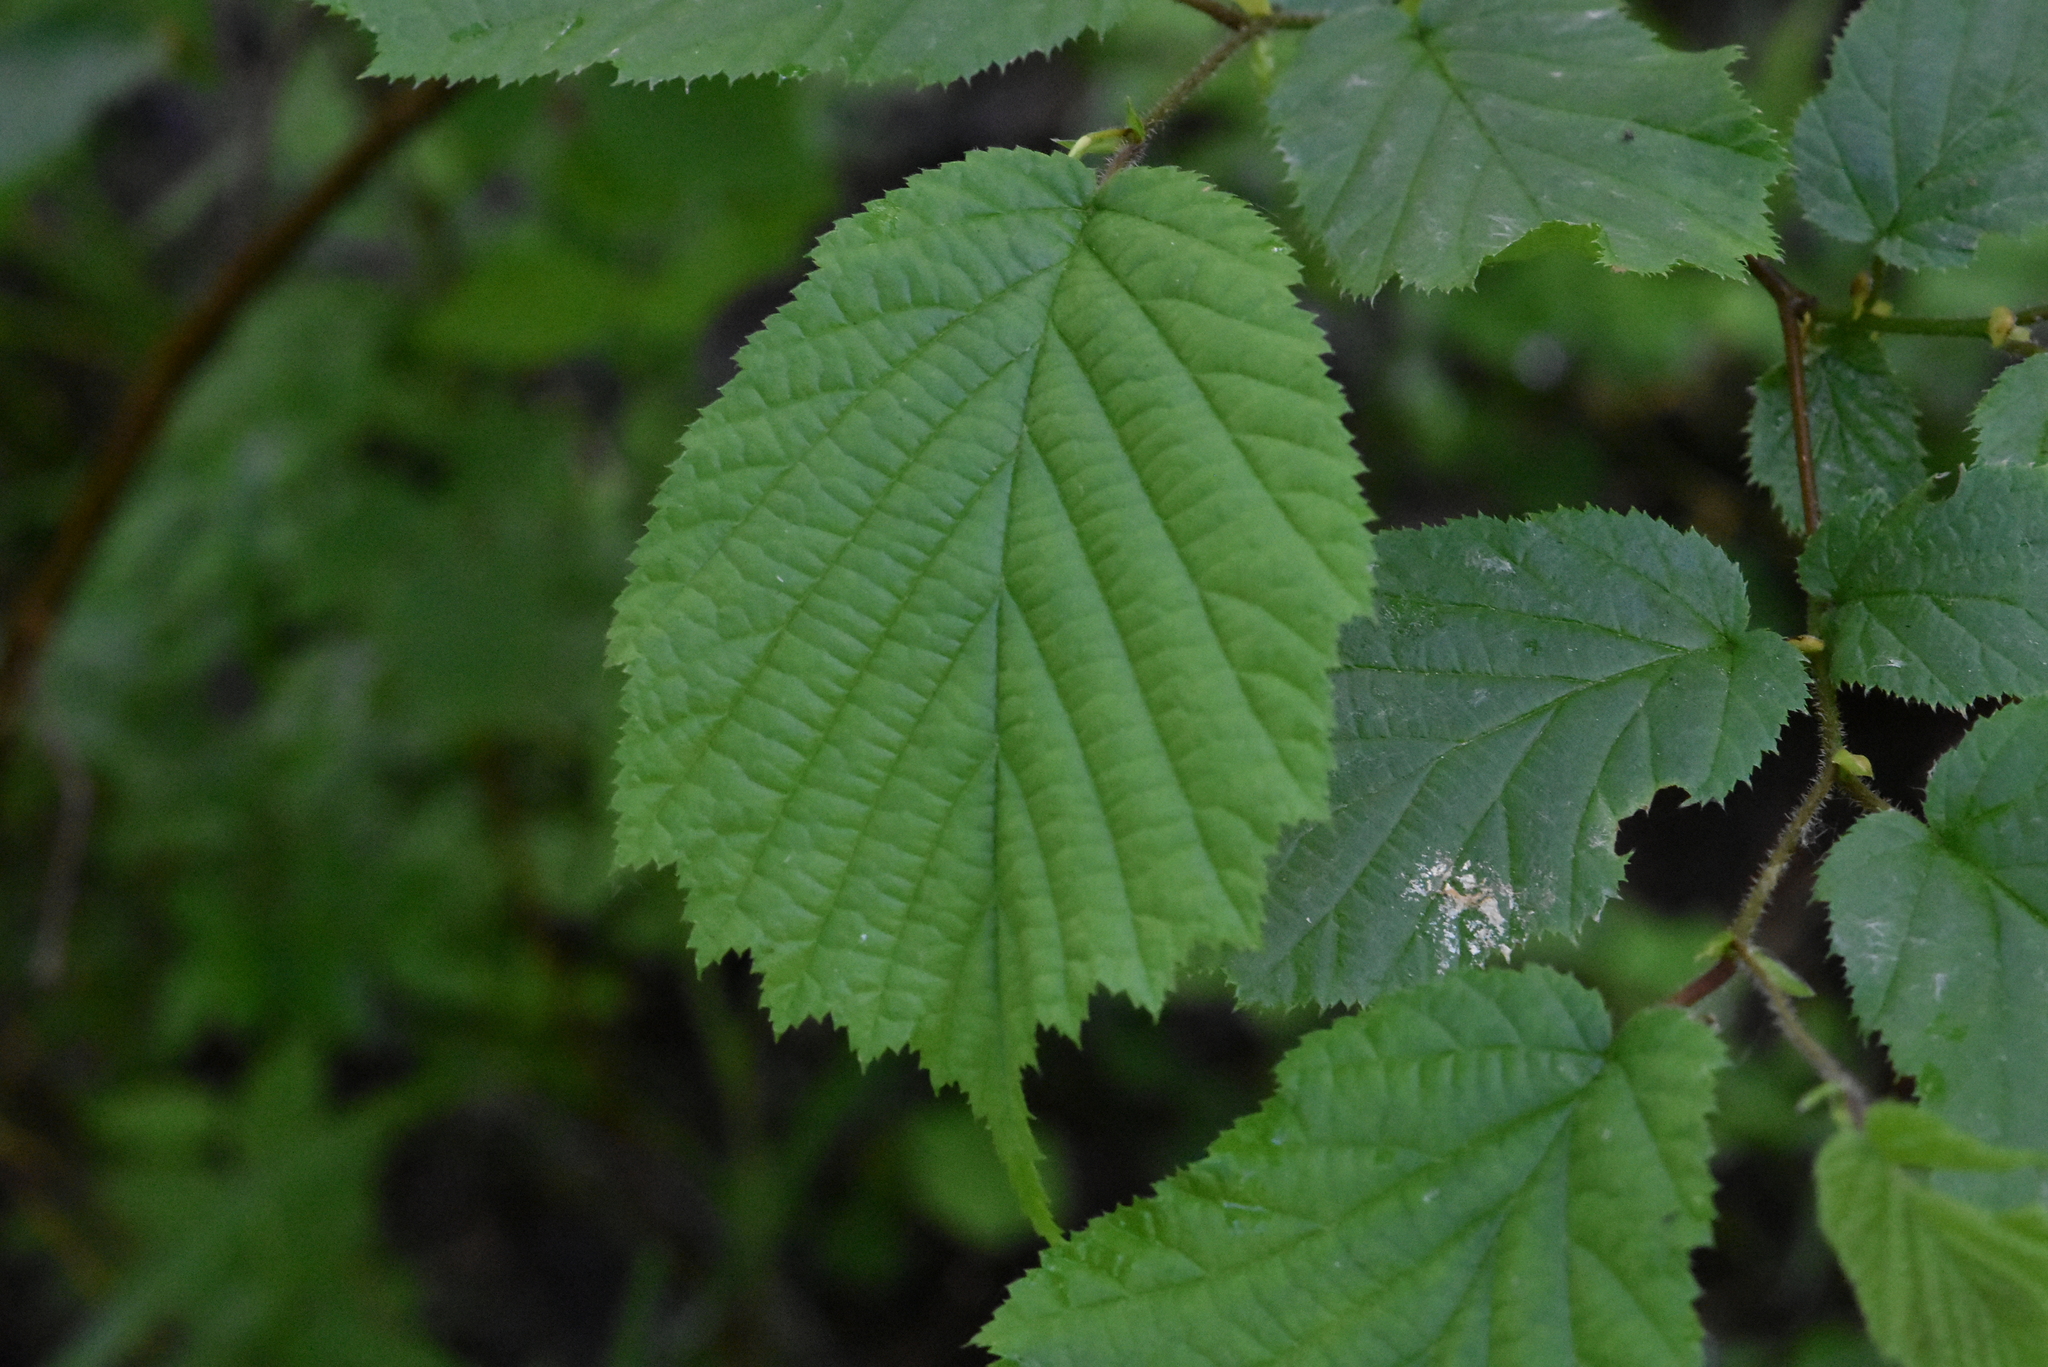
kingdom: Plantae
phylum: Tracheophyta
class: Magnoliopsida
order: Fagales
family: Betulaceae
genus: Corylus
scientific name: Corylus avellana
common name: European hazel
